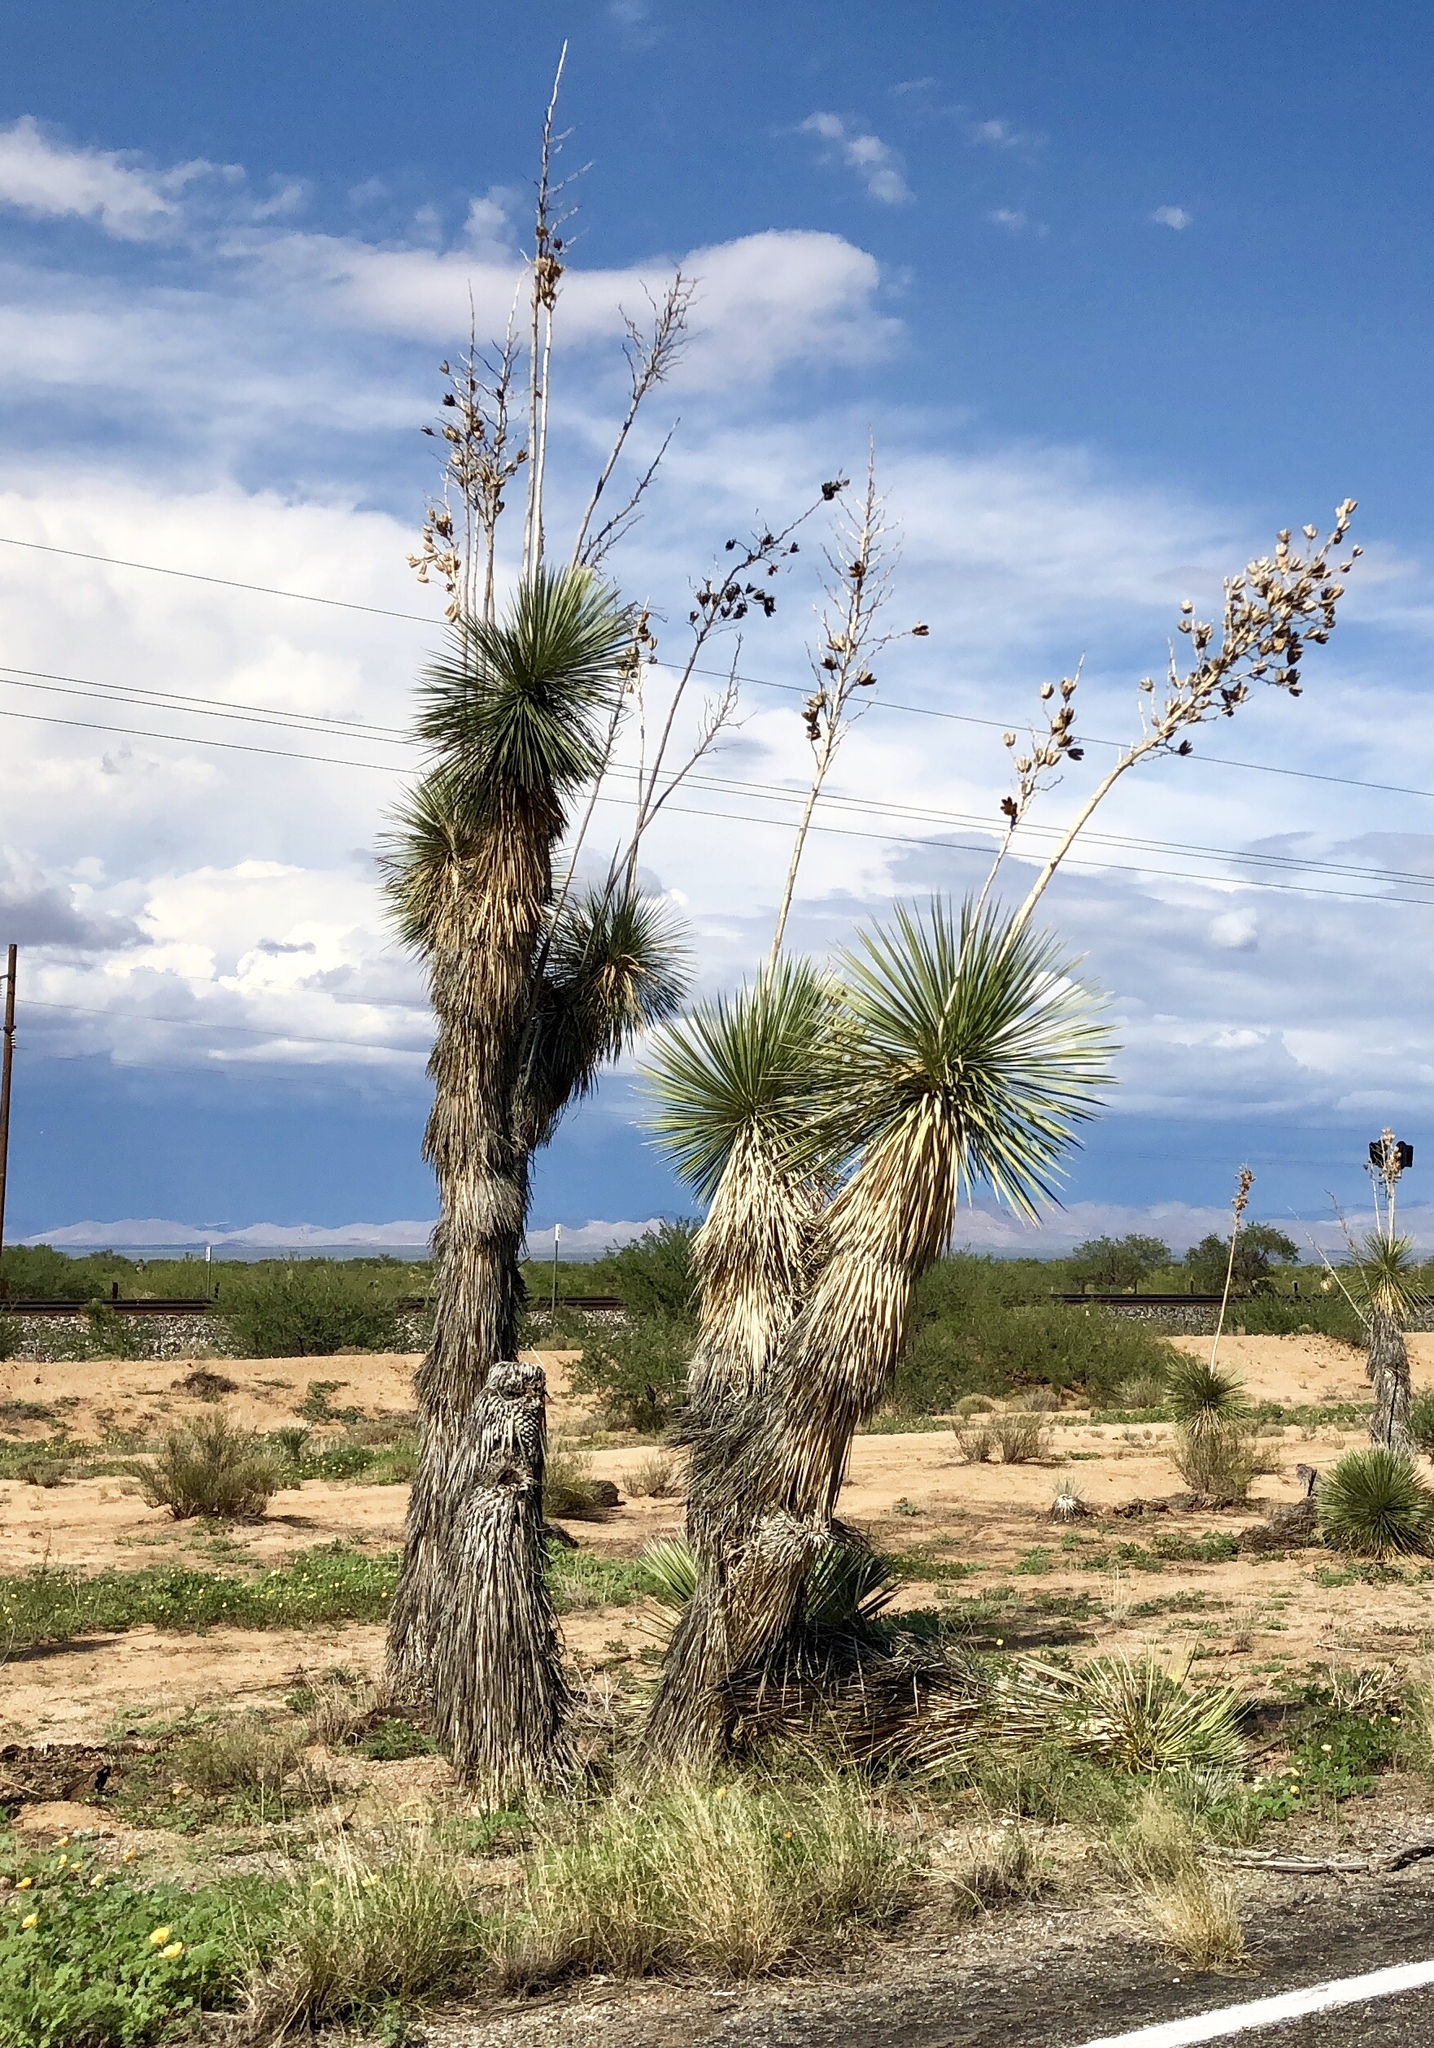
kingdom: Plantae
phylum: Tracheophyta
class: Liliopsida
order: Asparagales
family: Asparagaceae
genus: Yucca
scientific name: Yucca elata
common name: Palmella
